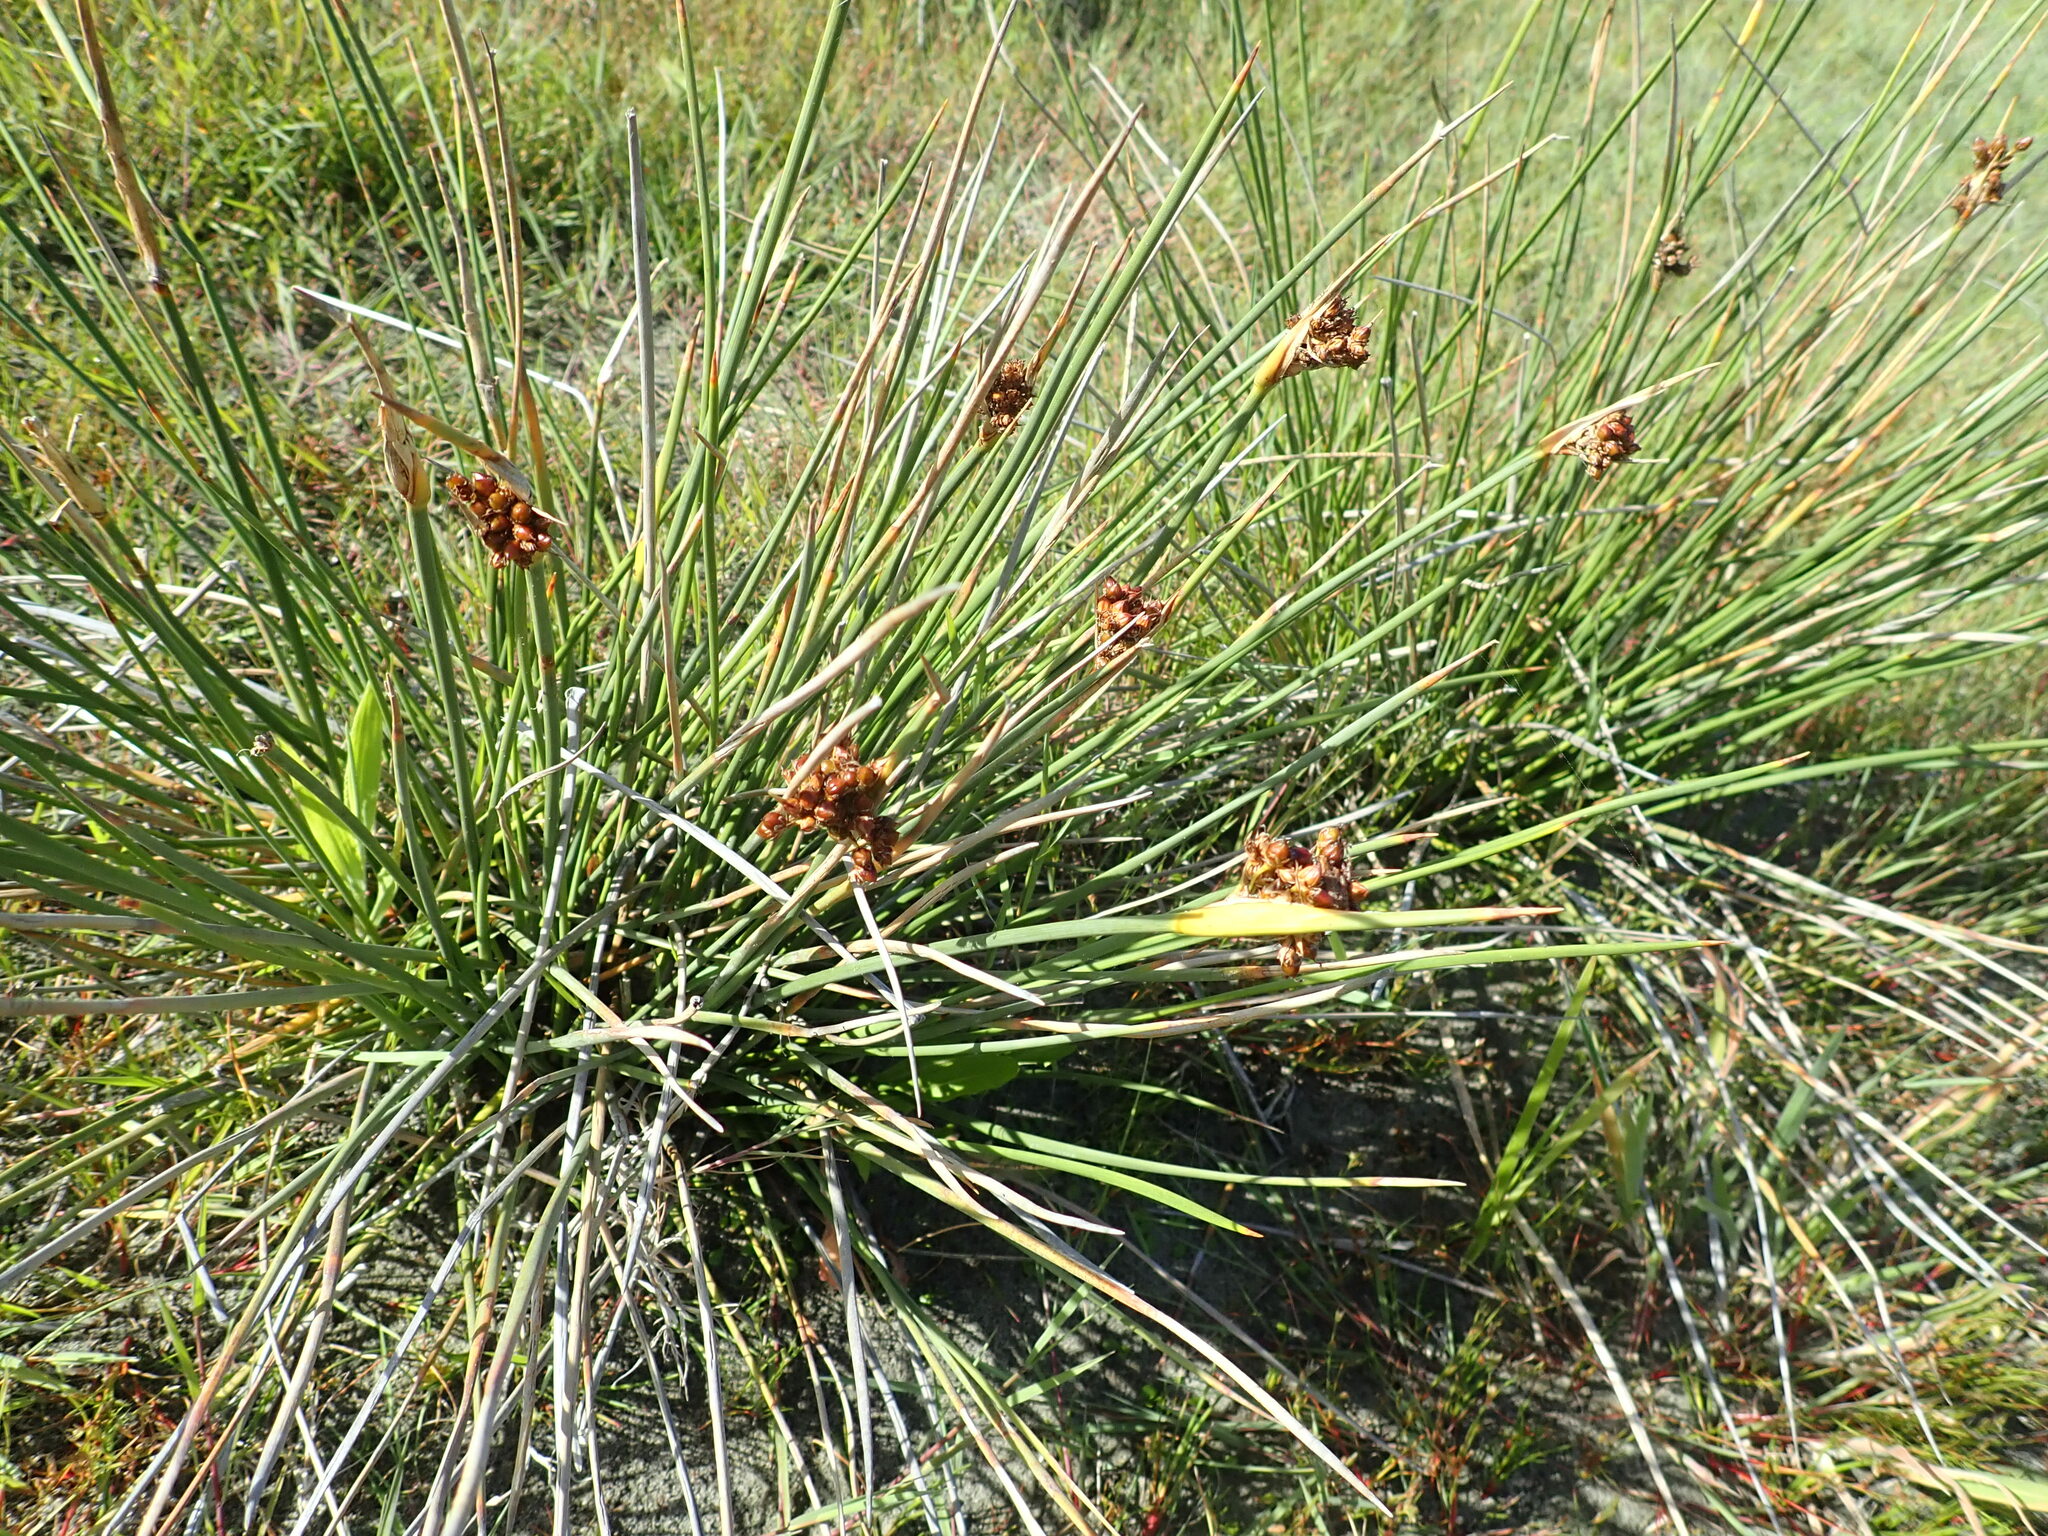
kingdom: Plantae
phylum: Tracheophyta
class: Liliopsida
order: Poales
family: Juncaceae
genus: Juncus
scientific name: Juncus acutus
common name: Sharp rush
